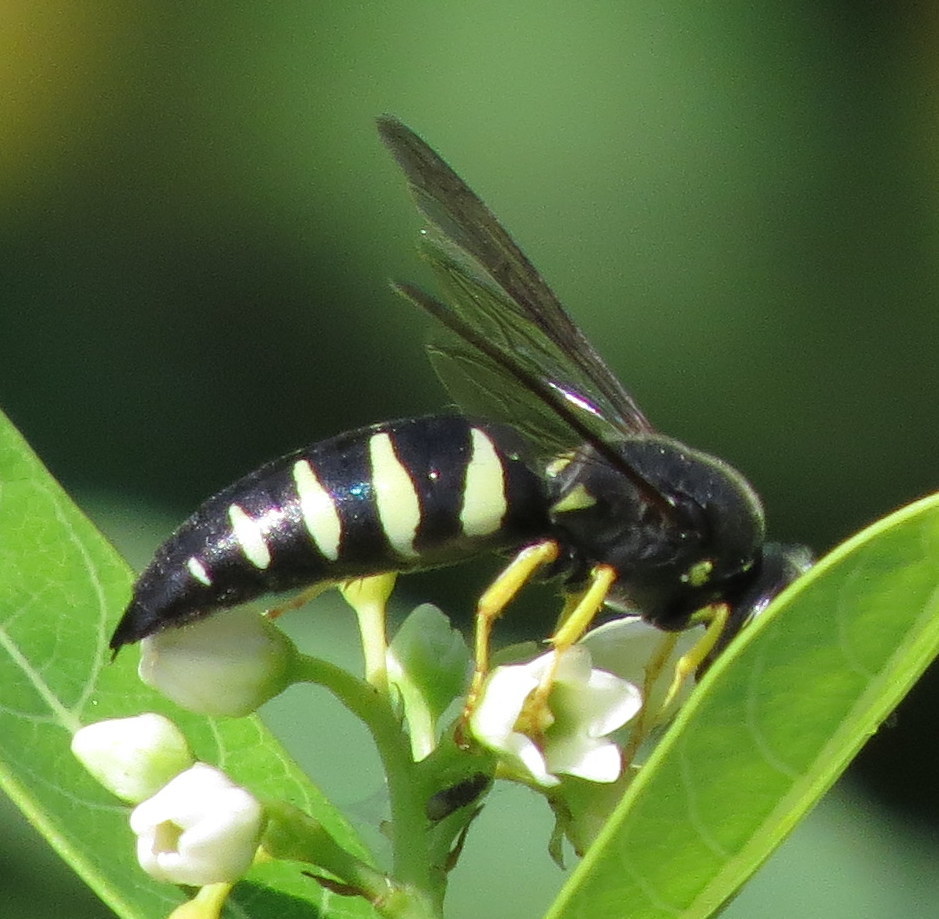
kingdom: Animalia
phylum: Arthropoda
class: Insecta
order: Hymenoptera
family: Crabronidae
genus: Bicyrtes
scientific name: Bicyrtes quadrifasciatus
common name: Four-banded stink bug hunter wasp
